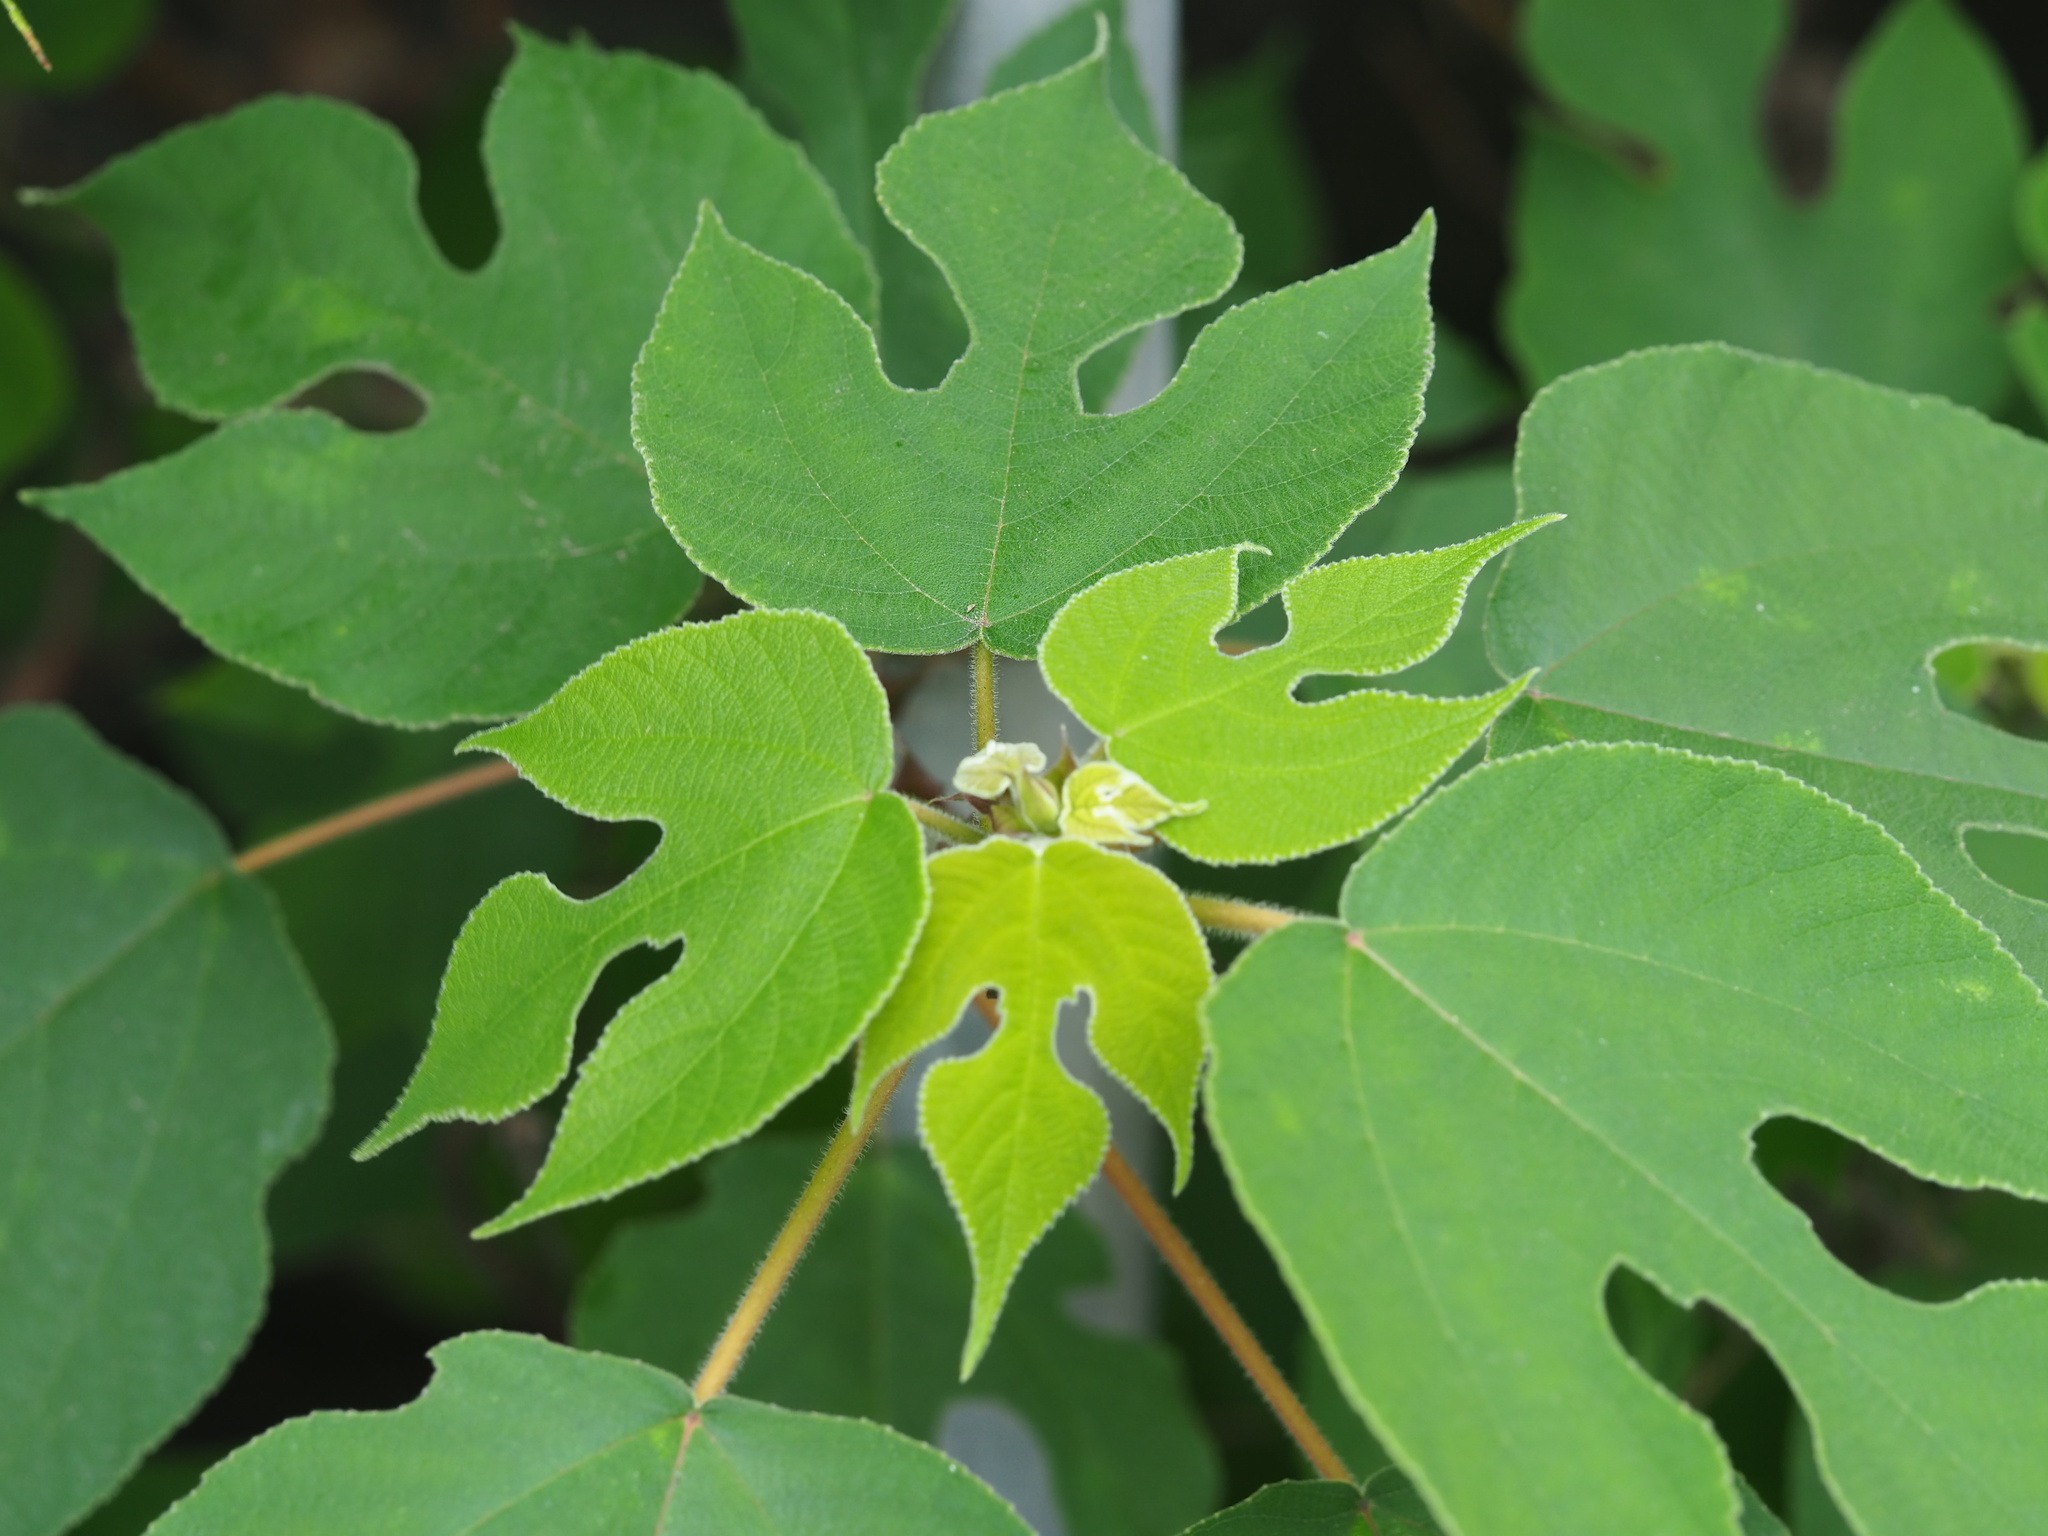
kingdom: Plantae
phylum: Tracheophyta
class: Magnoliopsida
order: Rosales
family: Moraceae
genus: Broussonetia
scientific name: Broussonetia papyrifera
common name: Paper mulberry
